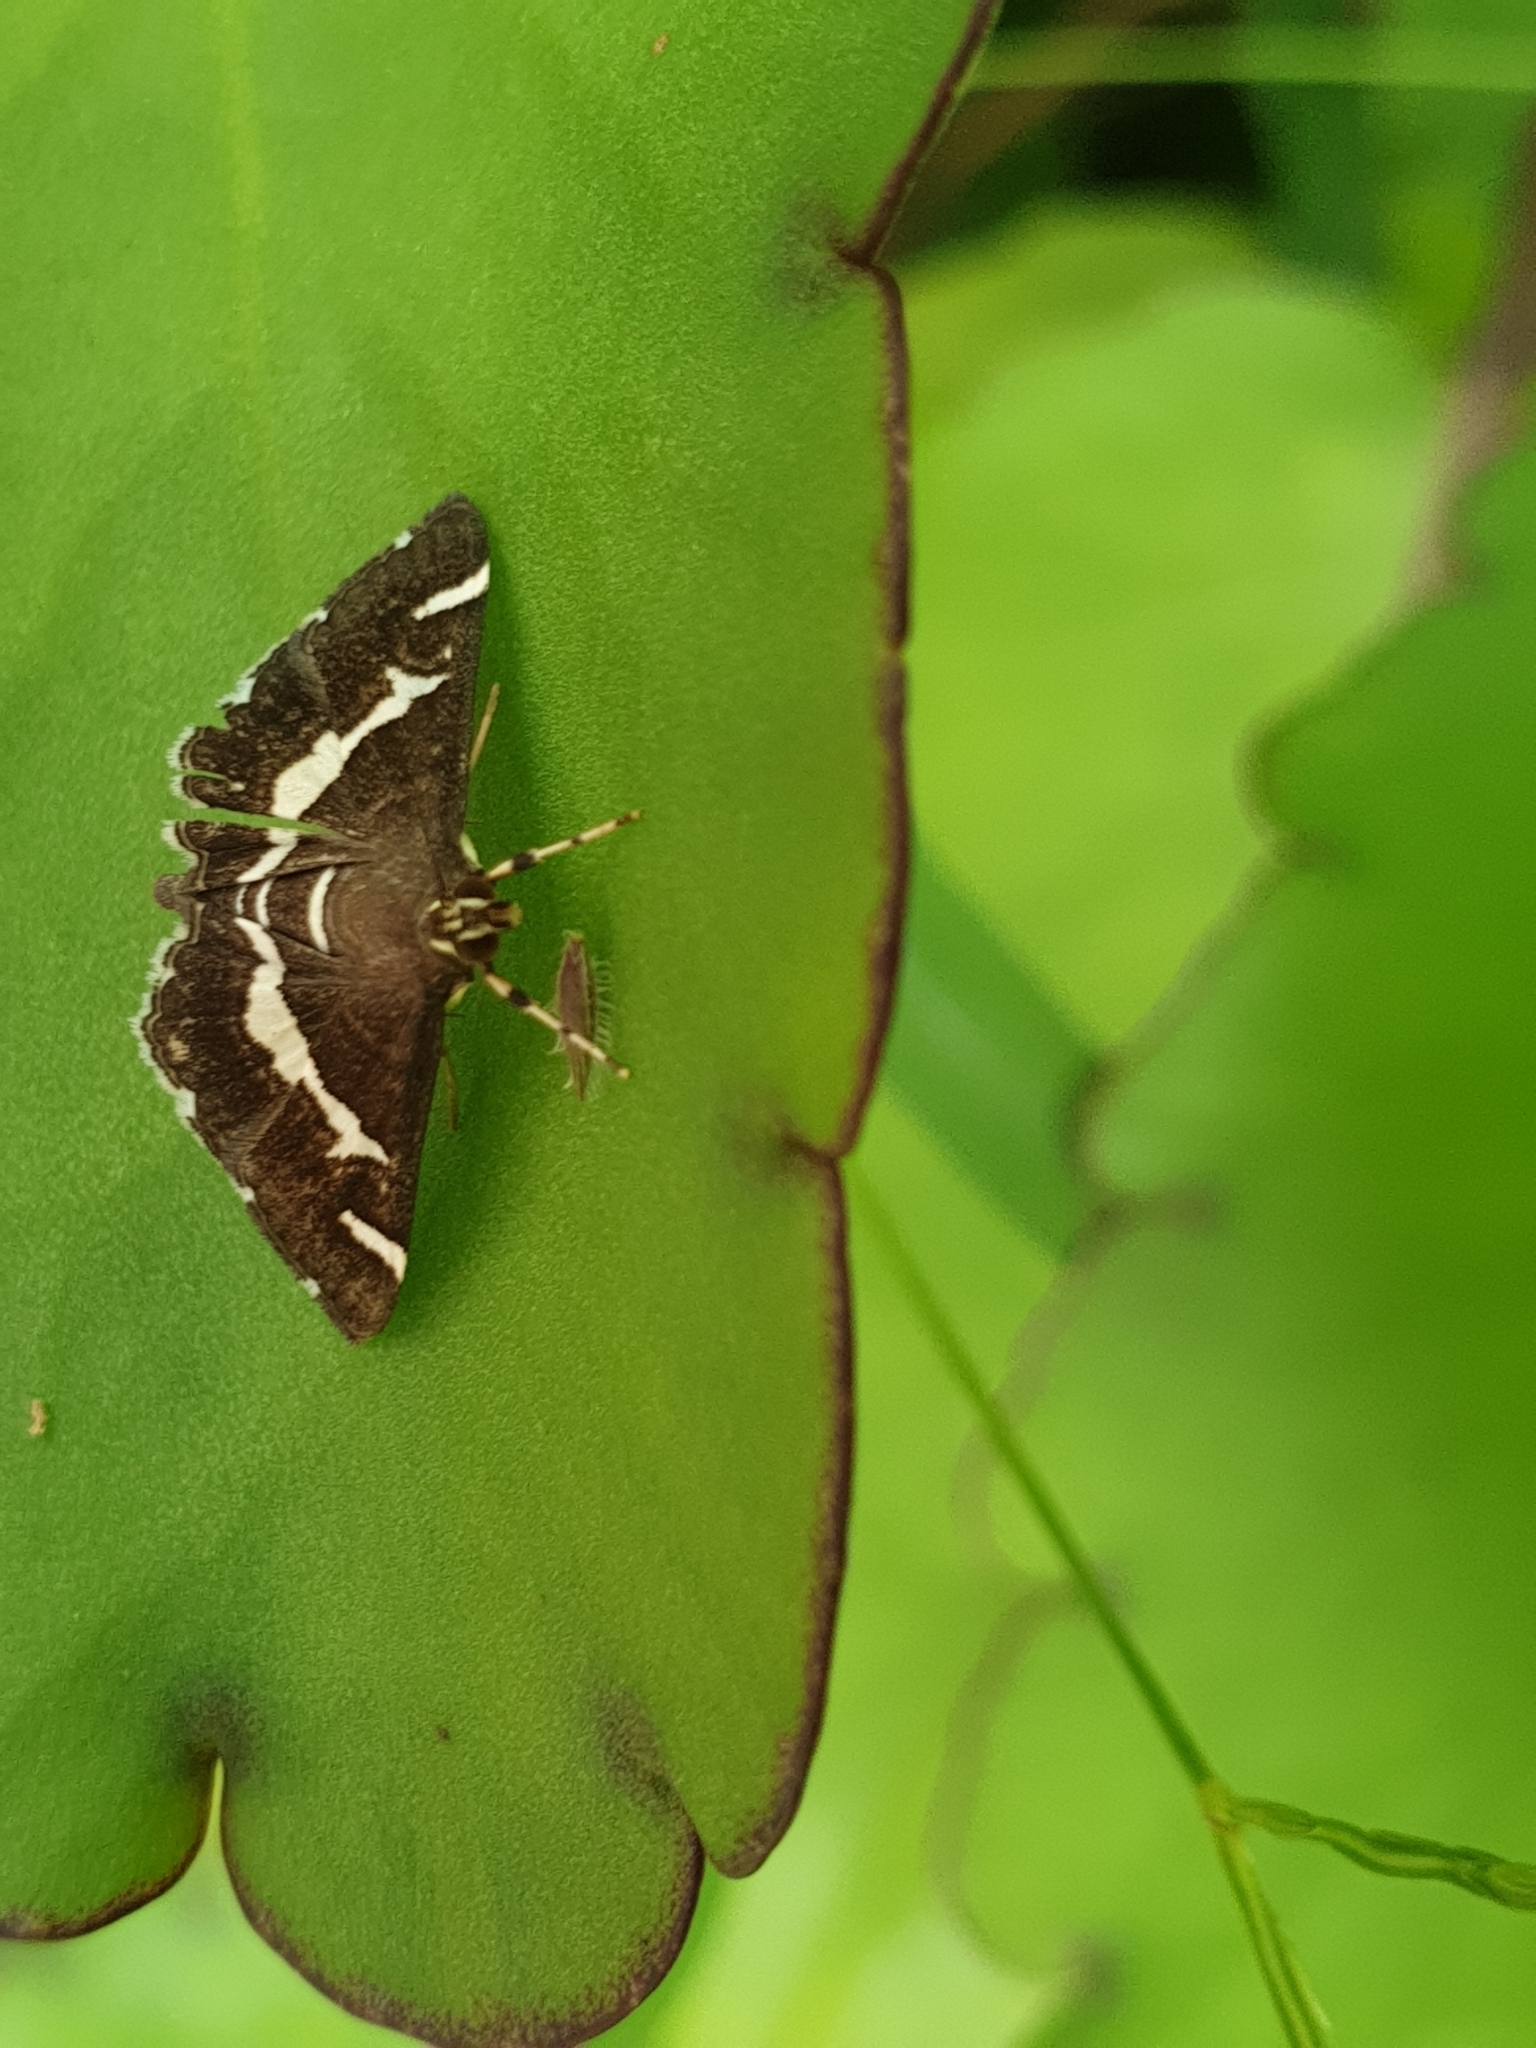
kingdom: Animalia
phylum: Arthropoda
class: Insecta
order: Lepidoptera
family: Crambidae
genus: Spoladea
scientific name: Spoladea recurvalis
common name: Beet webworm moth
